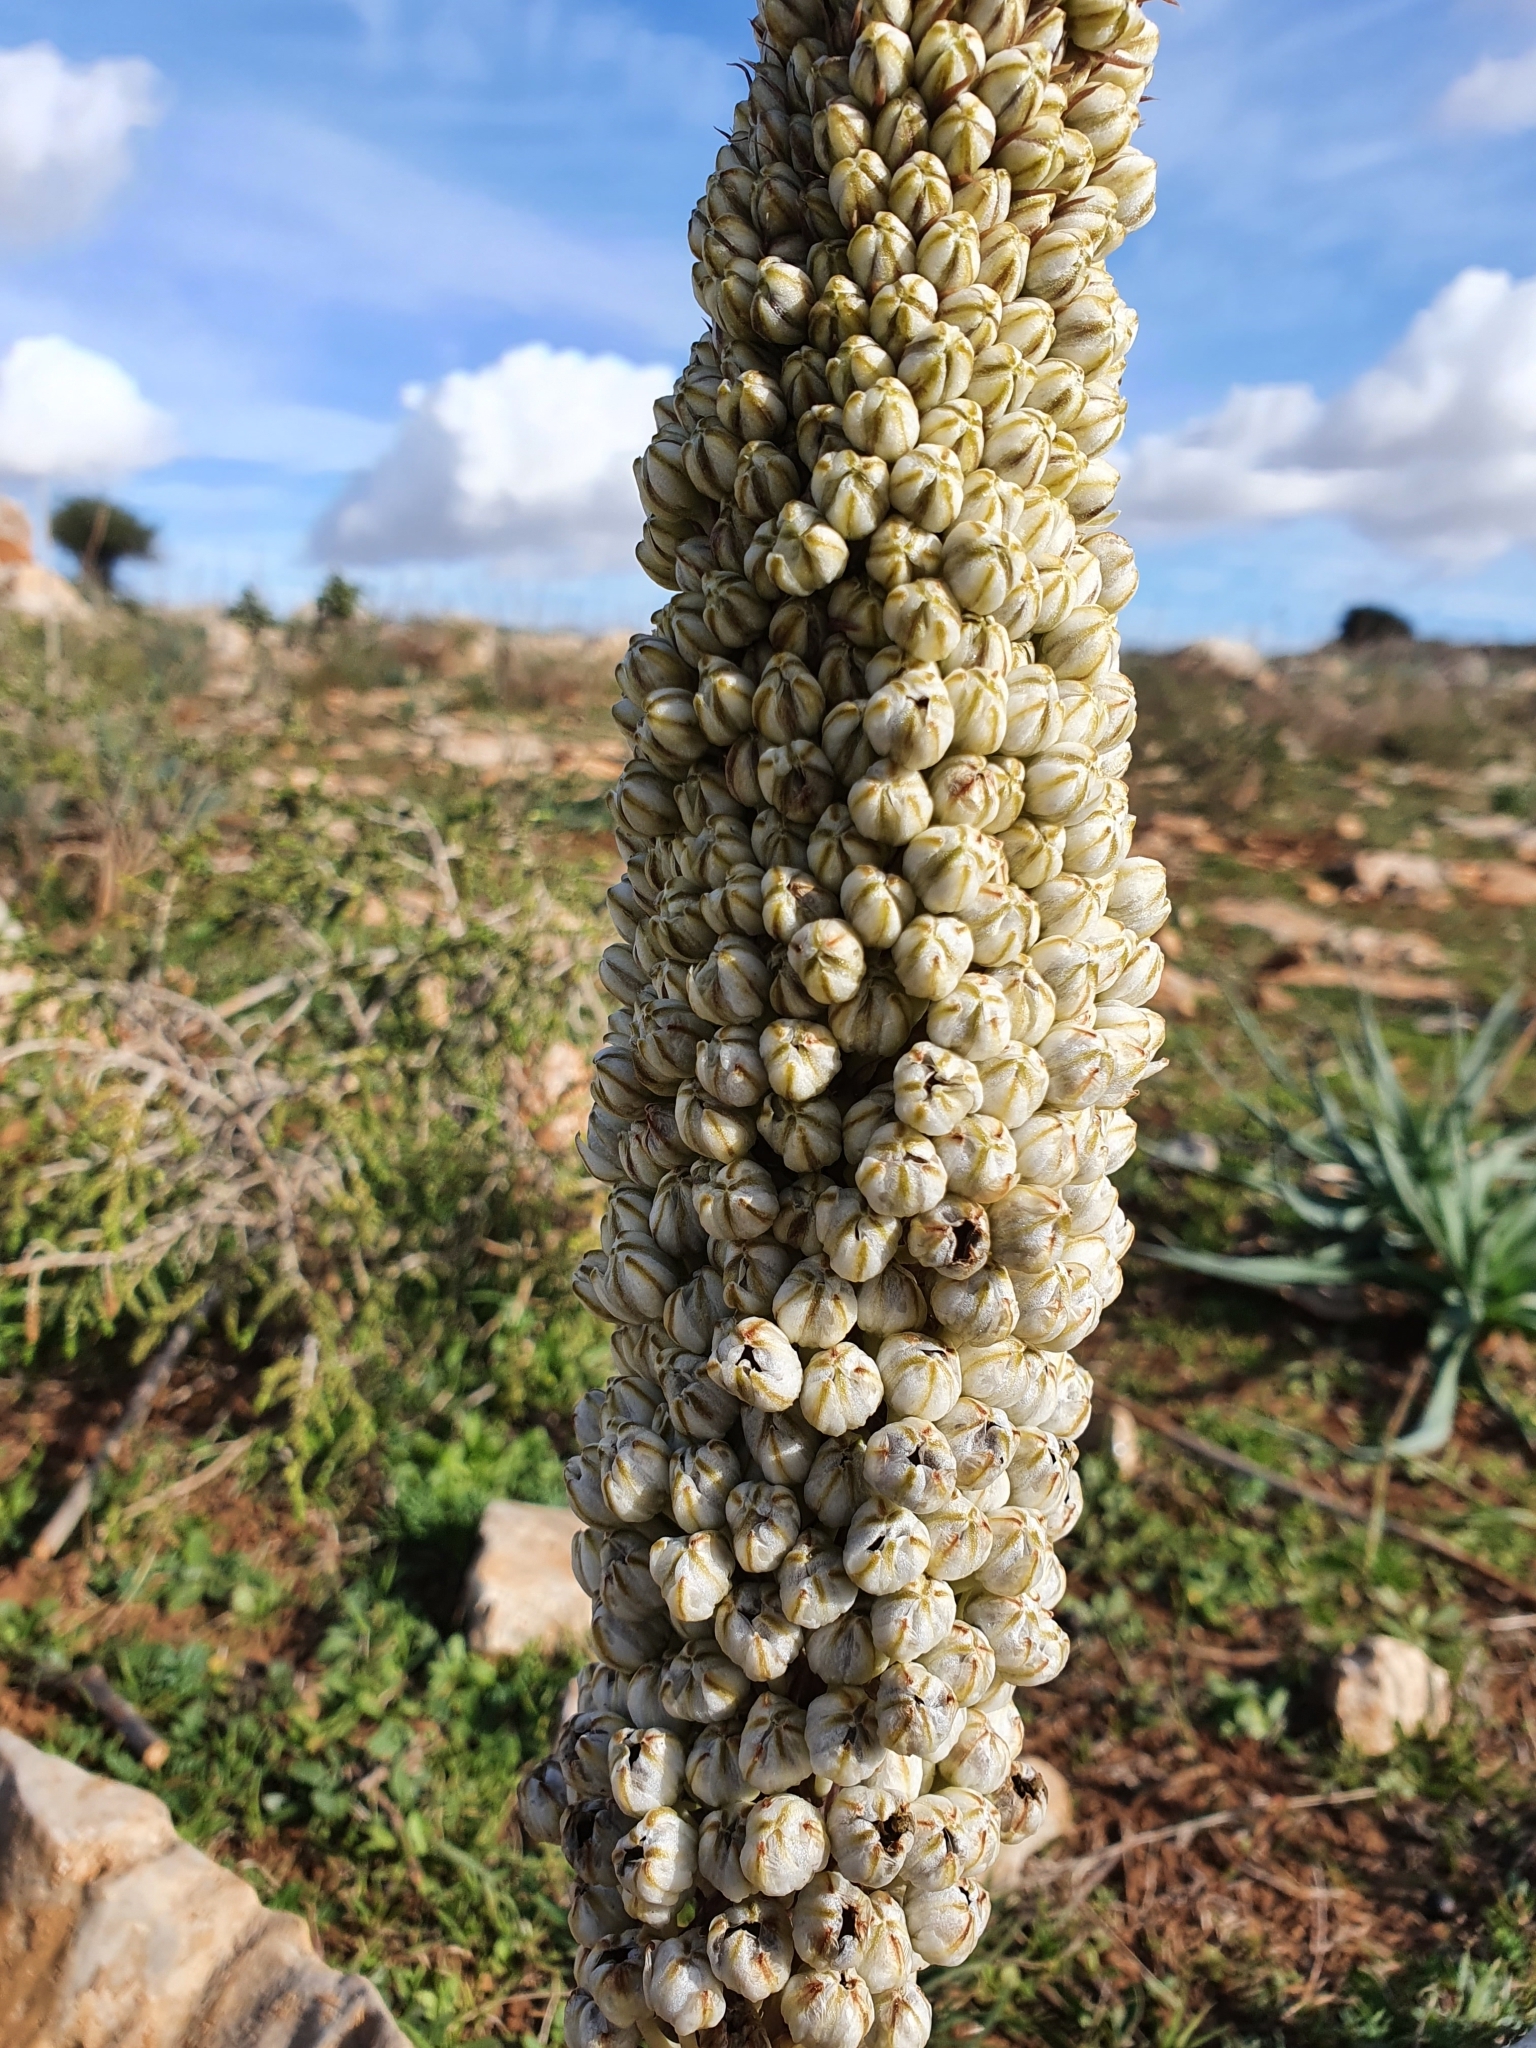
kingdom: Plantae
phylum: Tracheophyta
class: Liliopsida
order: Asparagales
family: Asparagaceae
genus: Drimia
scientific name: Drimia numidica
